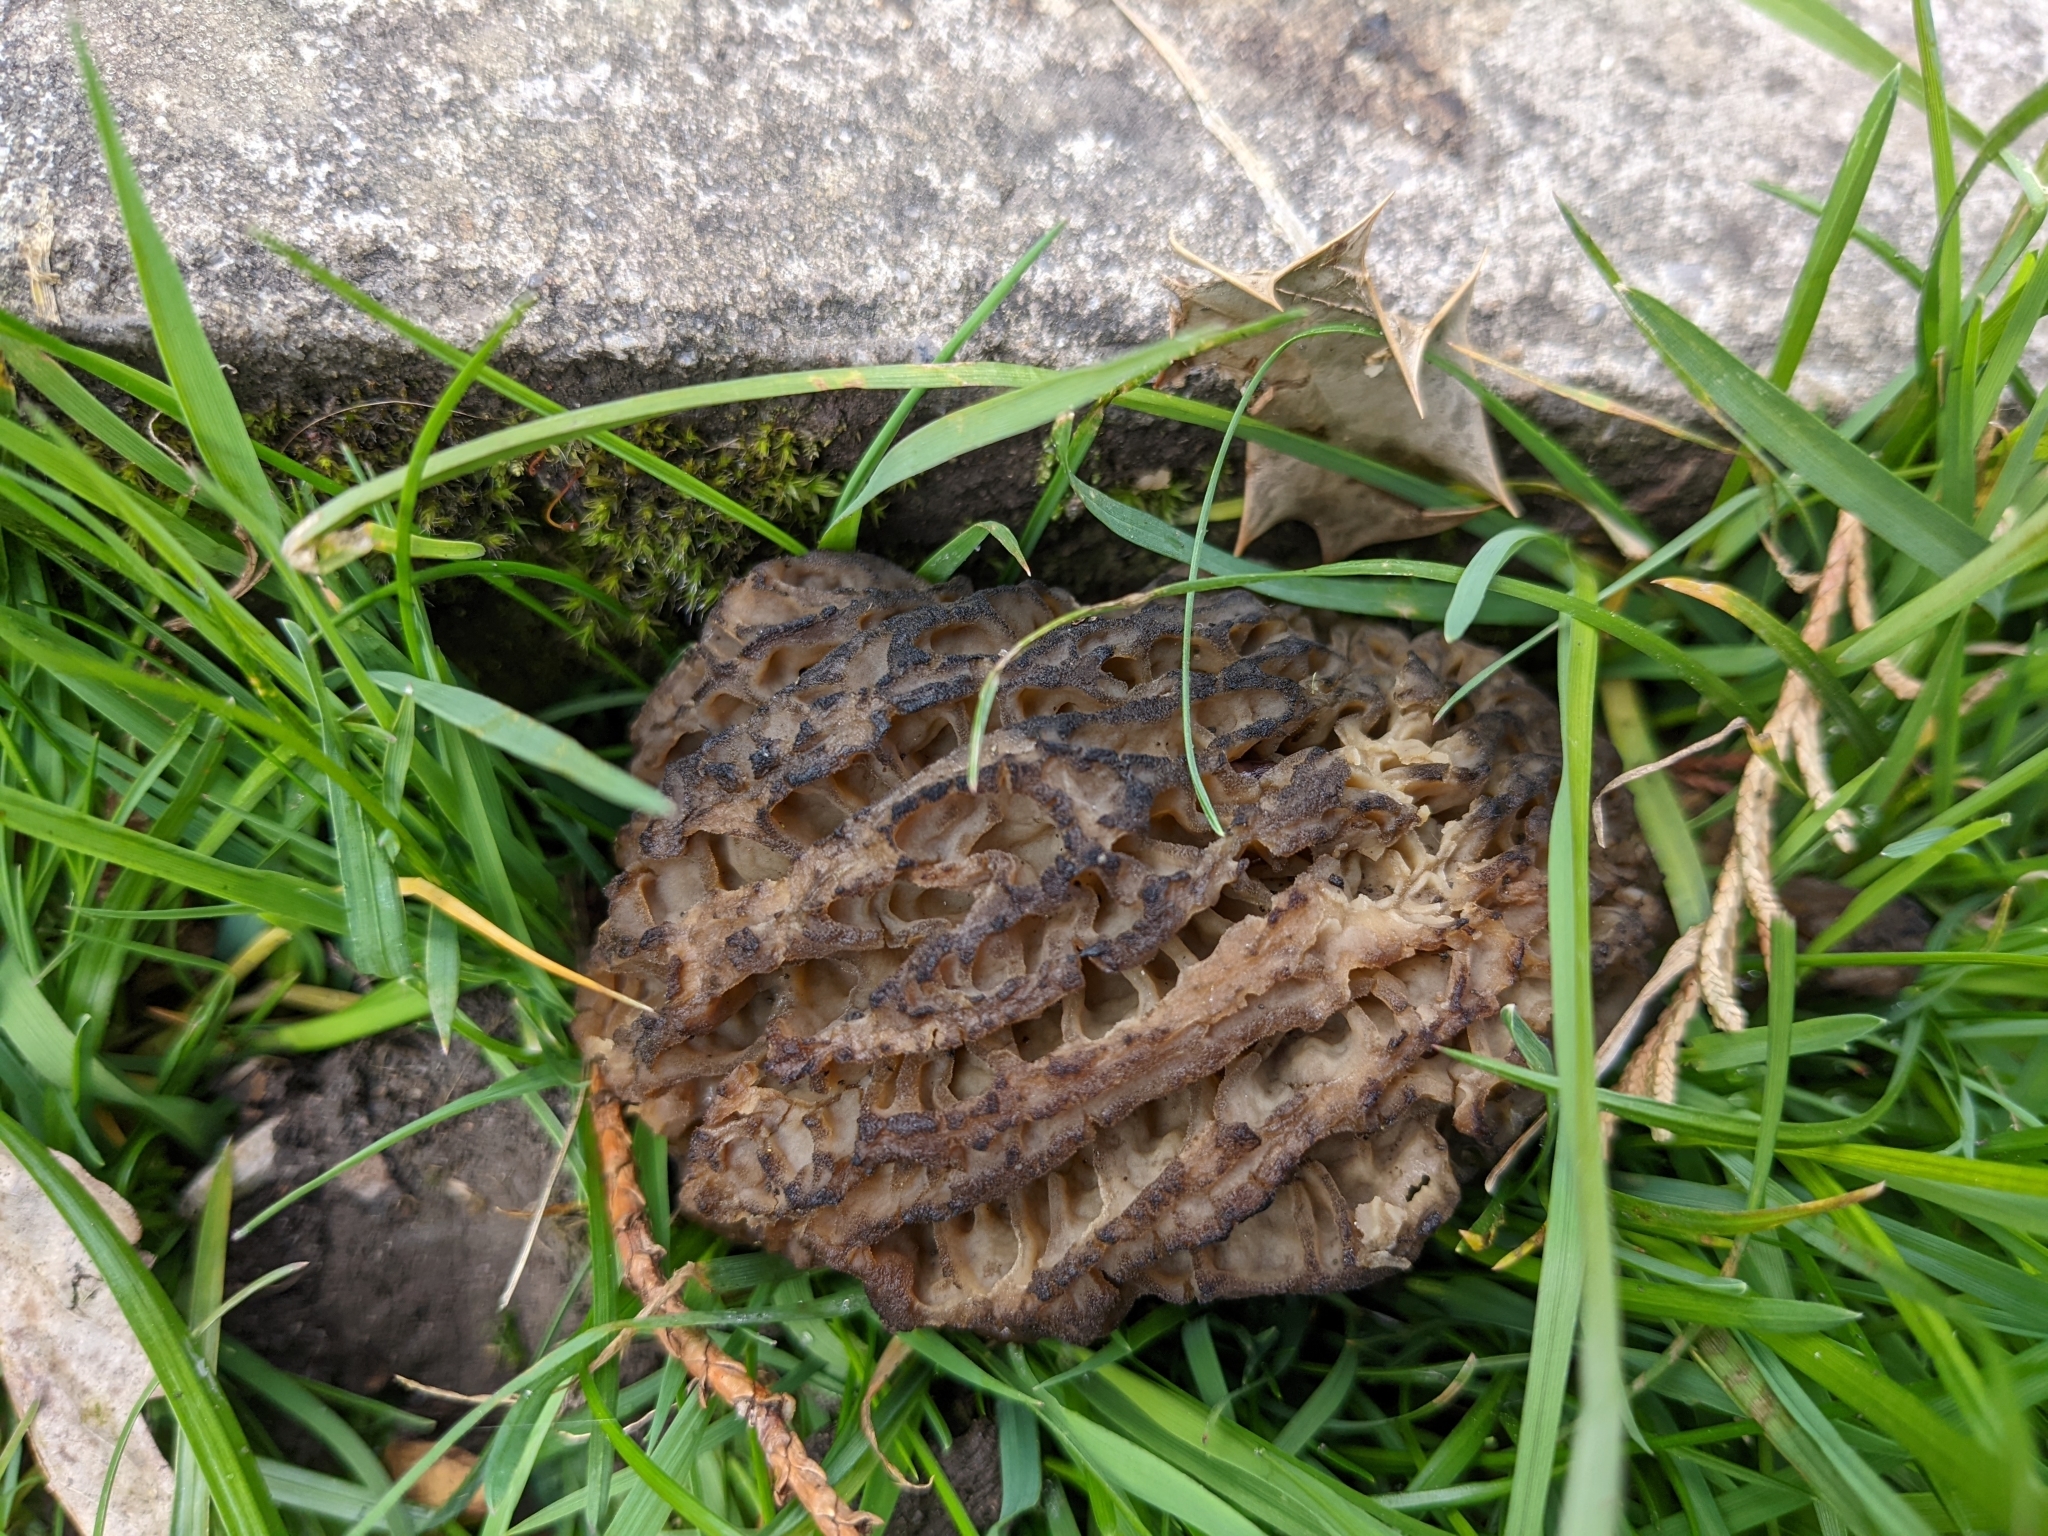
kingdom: Fungi
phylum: Ascomycota
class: Pezizomycetes
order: Pezizales
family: Morchellaceae
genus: Morchella
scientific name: Morchella importuna
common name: Landscaping black morel
